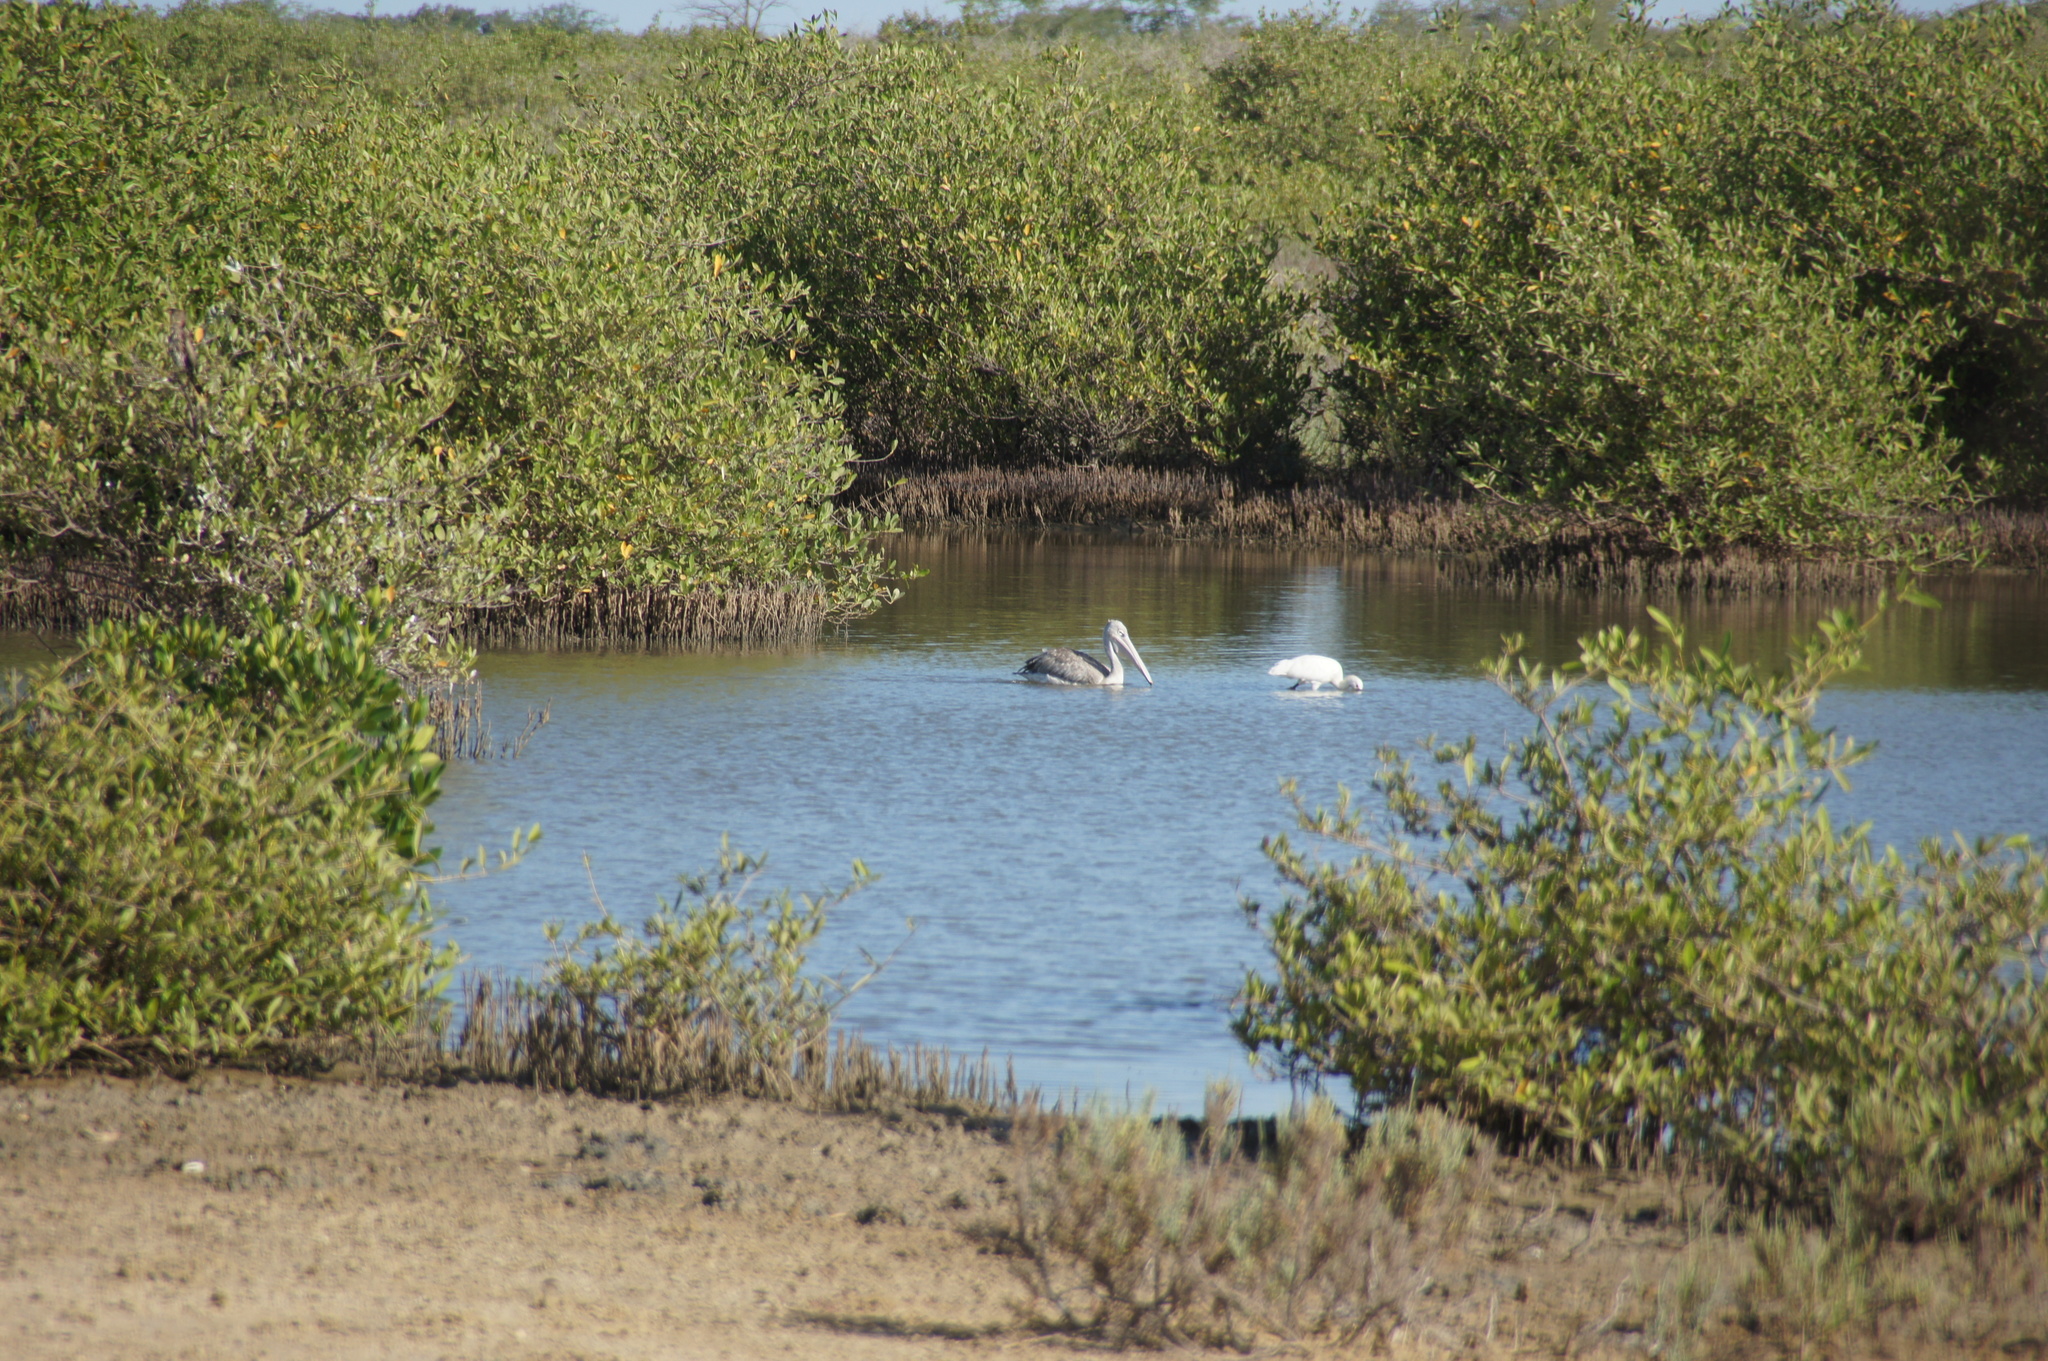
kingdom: Animalia
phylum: Chordata
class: Aves
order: Pelecaniformes
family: Pelecanidae
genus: Pelecanus
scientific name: Pelecanus rufescens
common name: Pink-backed pelican
